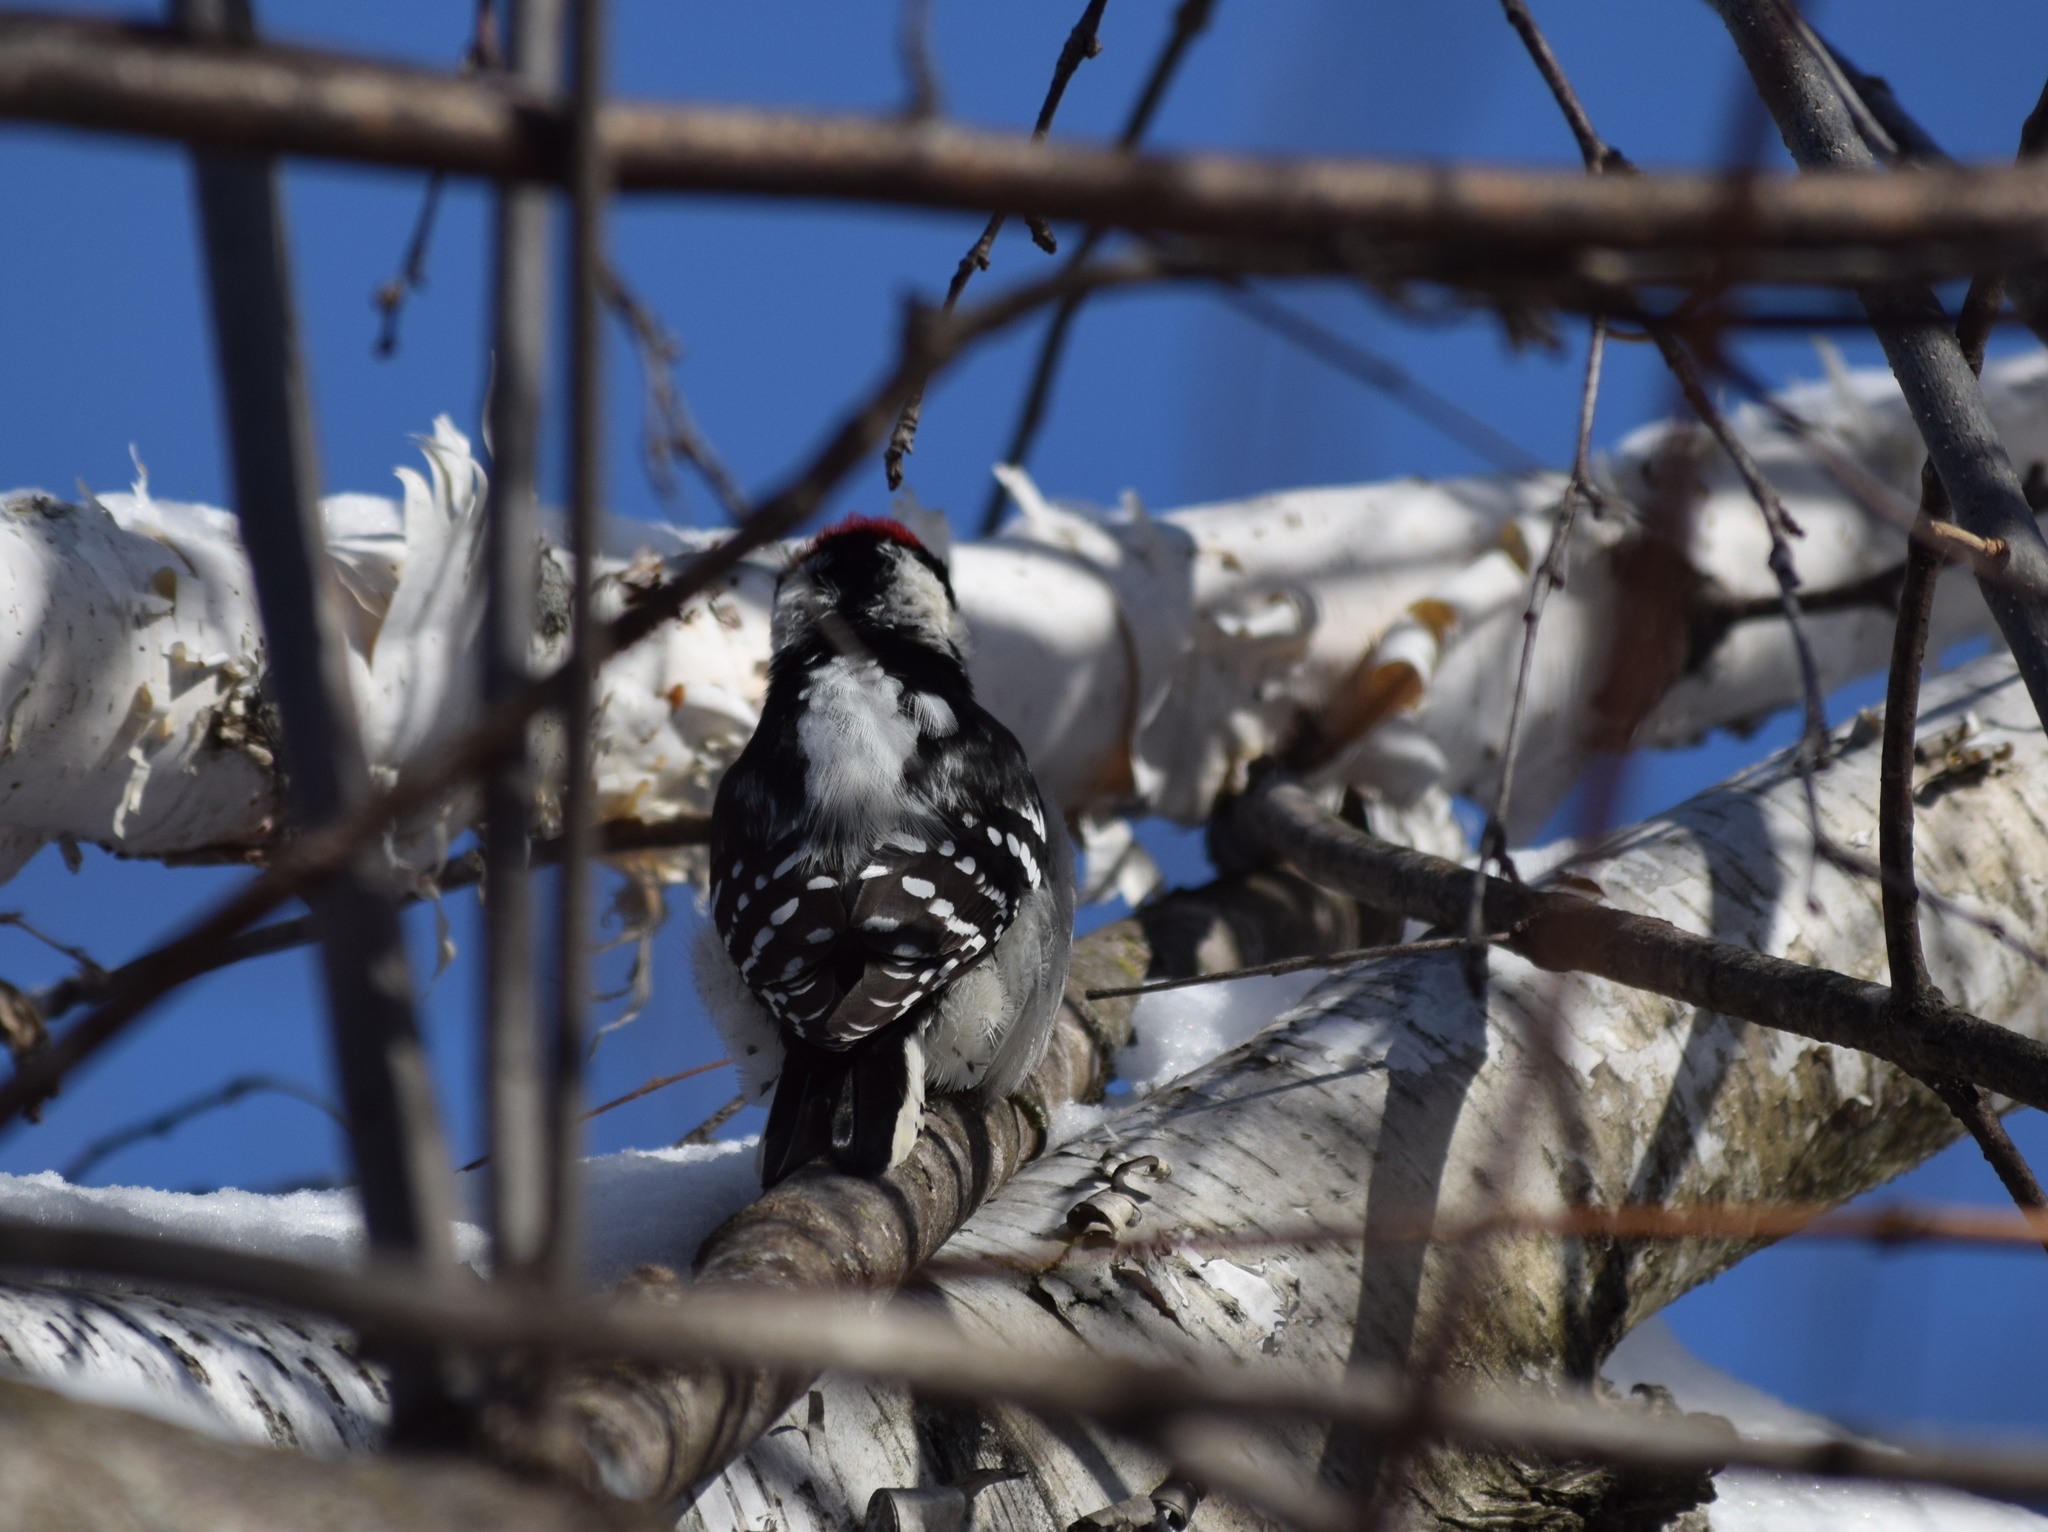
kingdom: Animalia
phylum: Chordata
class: Aves
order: Piciformes
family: Picidae
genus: Dryobates
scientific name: Dryobates pubescens
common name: Downy woodpecker
